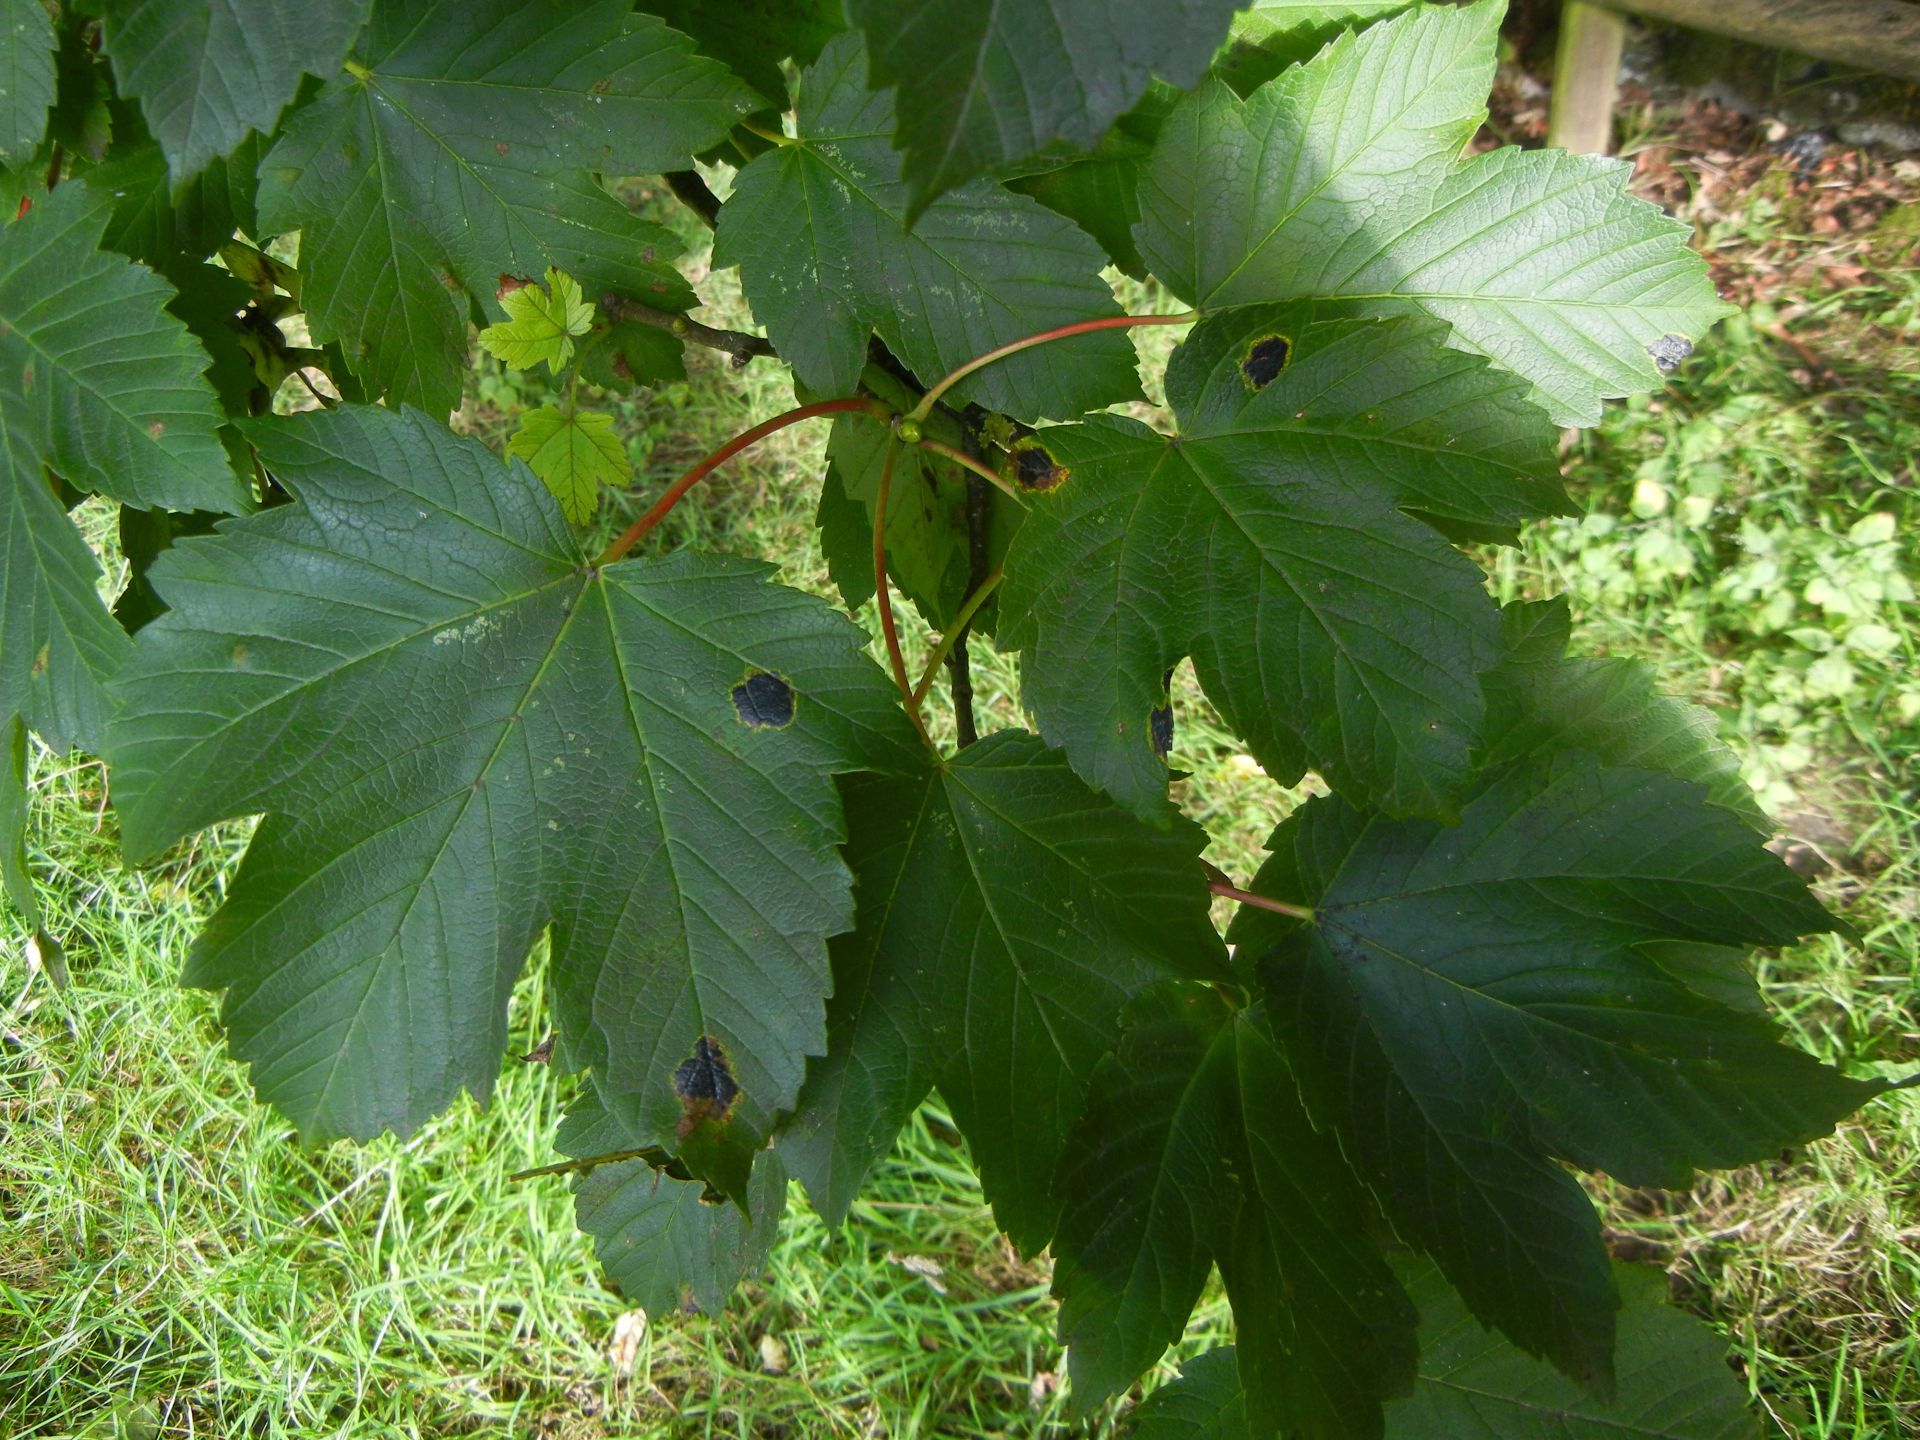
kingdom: Plantae
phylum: Tracheophyta
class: Magnoliopsida
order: Sapindales
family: Sapindaceae
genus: Acer
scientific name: Acer pseudoplatanus
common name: Sycamore
